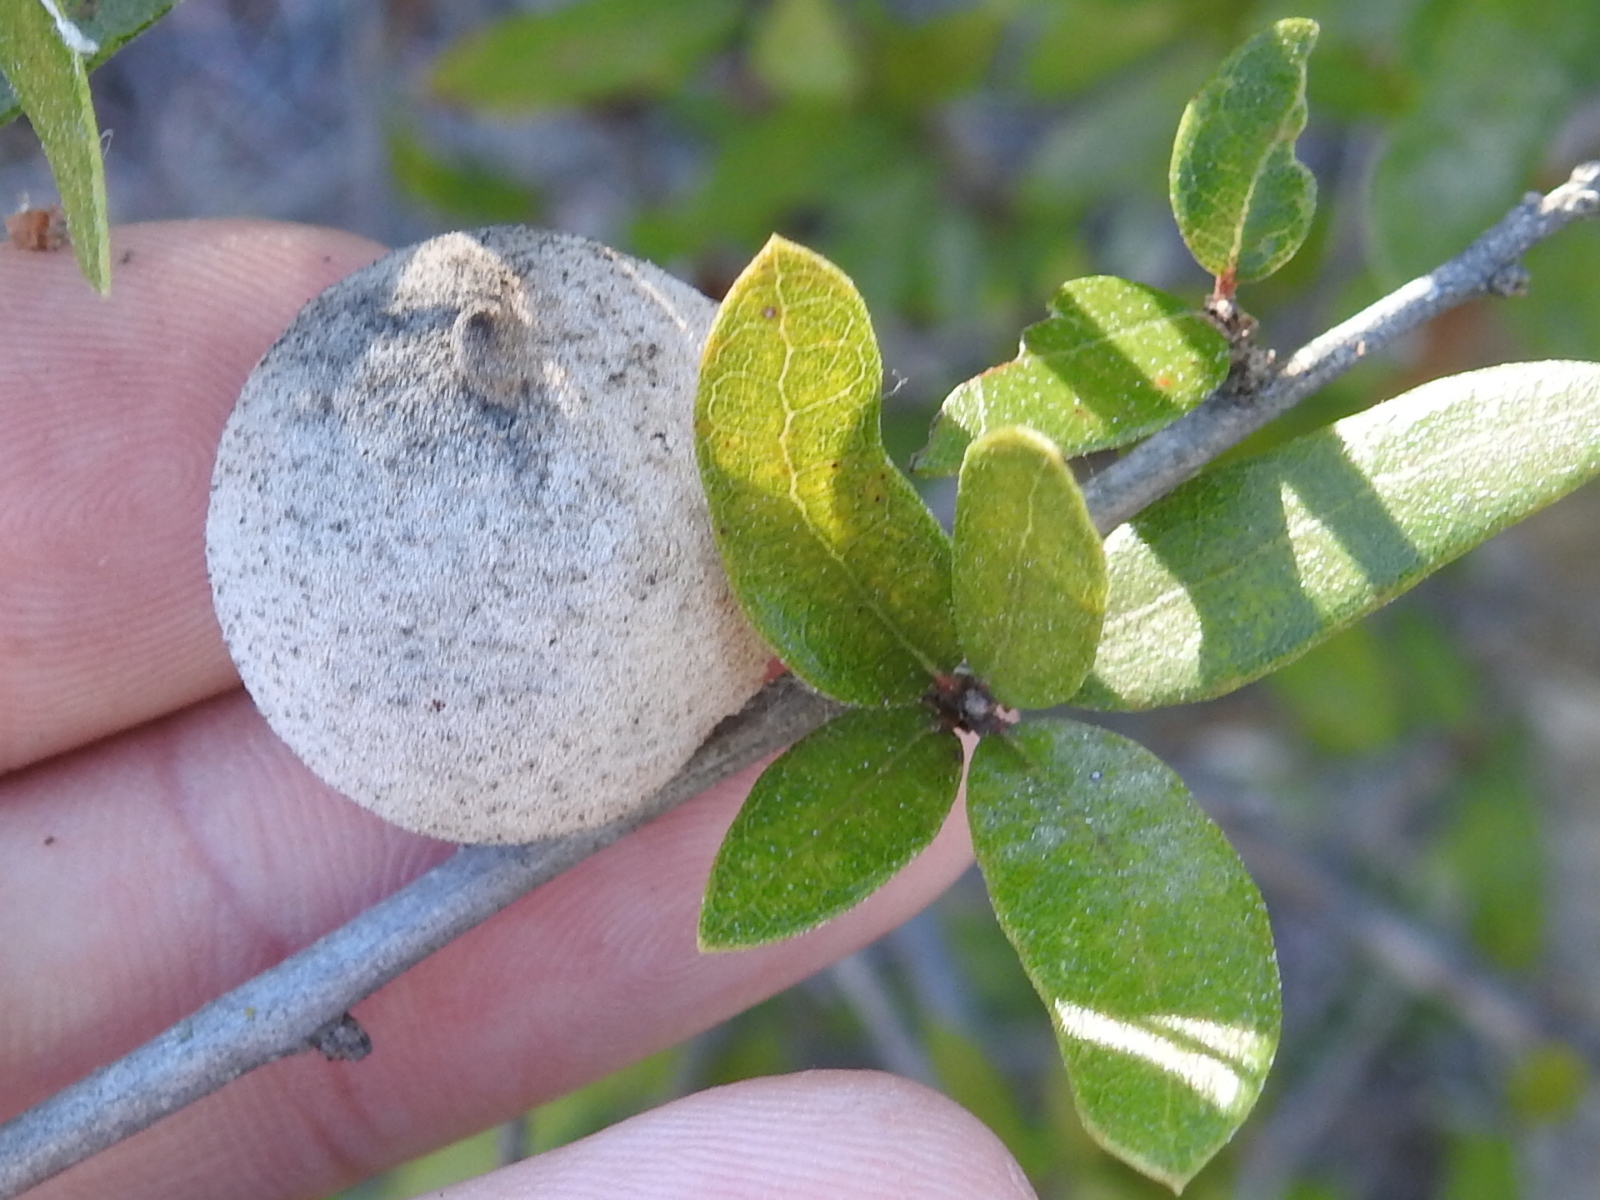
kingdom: Animalia
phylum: Arthropoda
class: Insecta
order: Hymenoptera
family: Cynipidae
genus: Disholcaspis
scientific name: Disholcaspis
